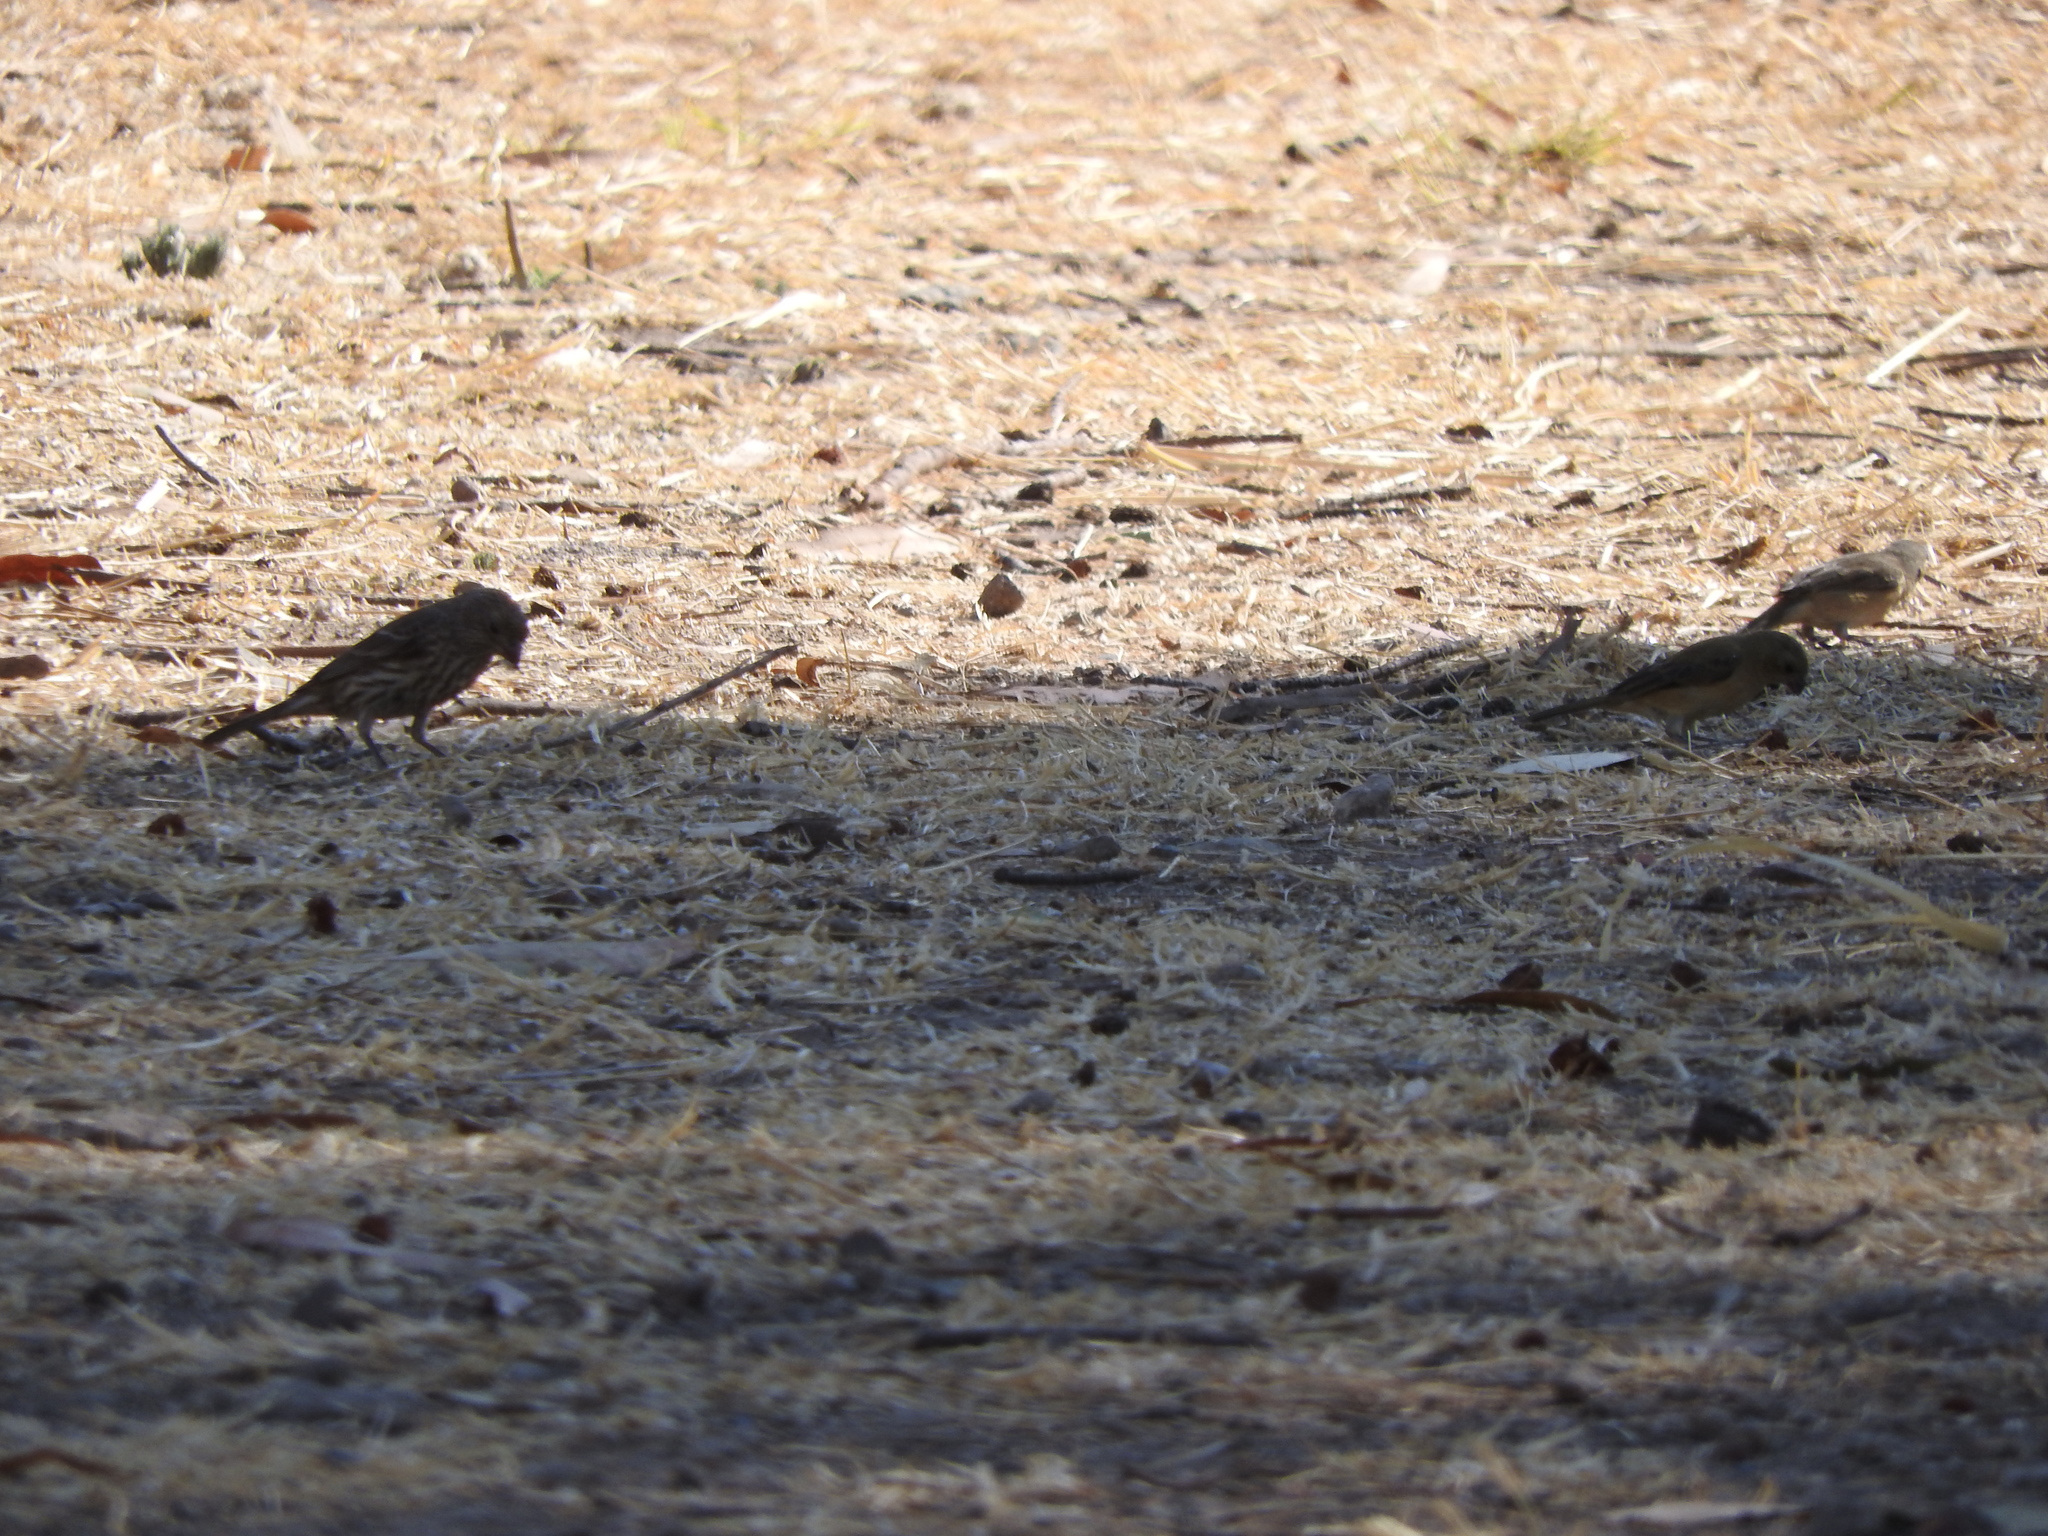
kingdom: Animalia
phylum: Chordata
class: Aves
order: Passeriformes
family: Fringillidae
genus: Haemorhous
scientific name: Haemorhous mexicanus
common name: House finch
